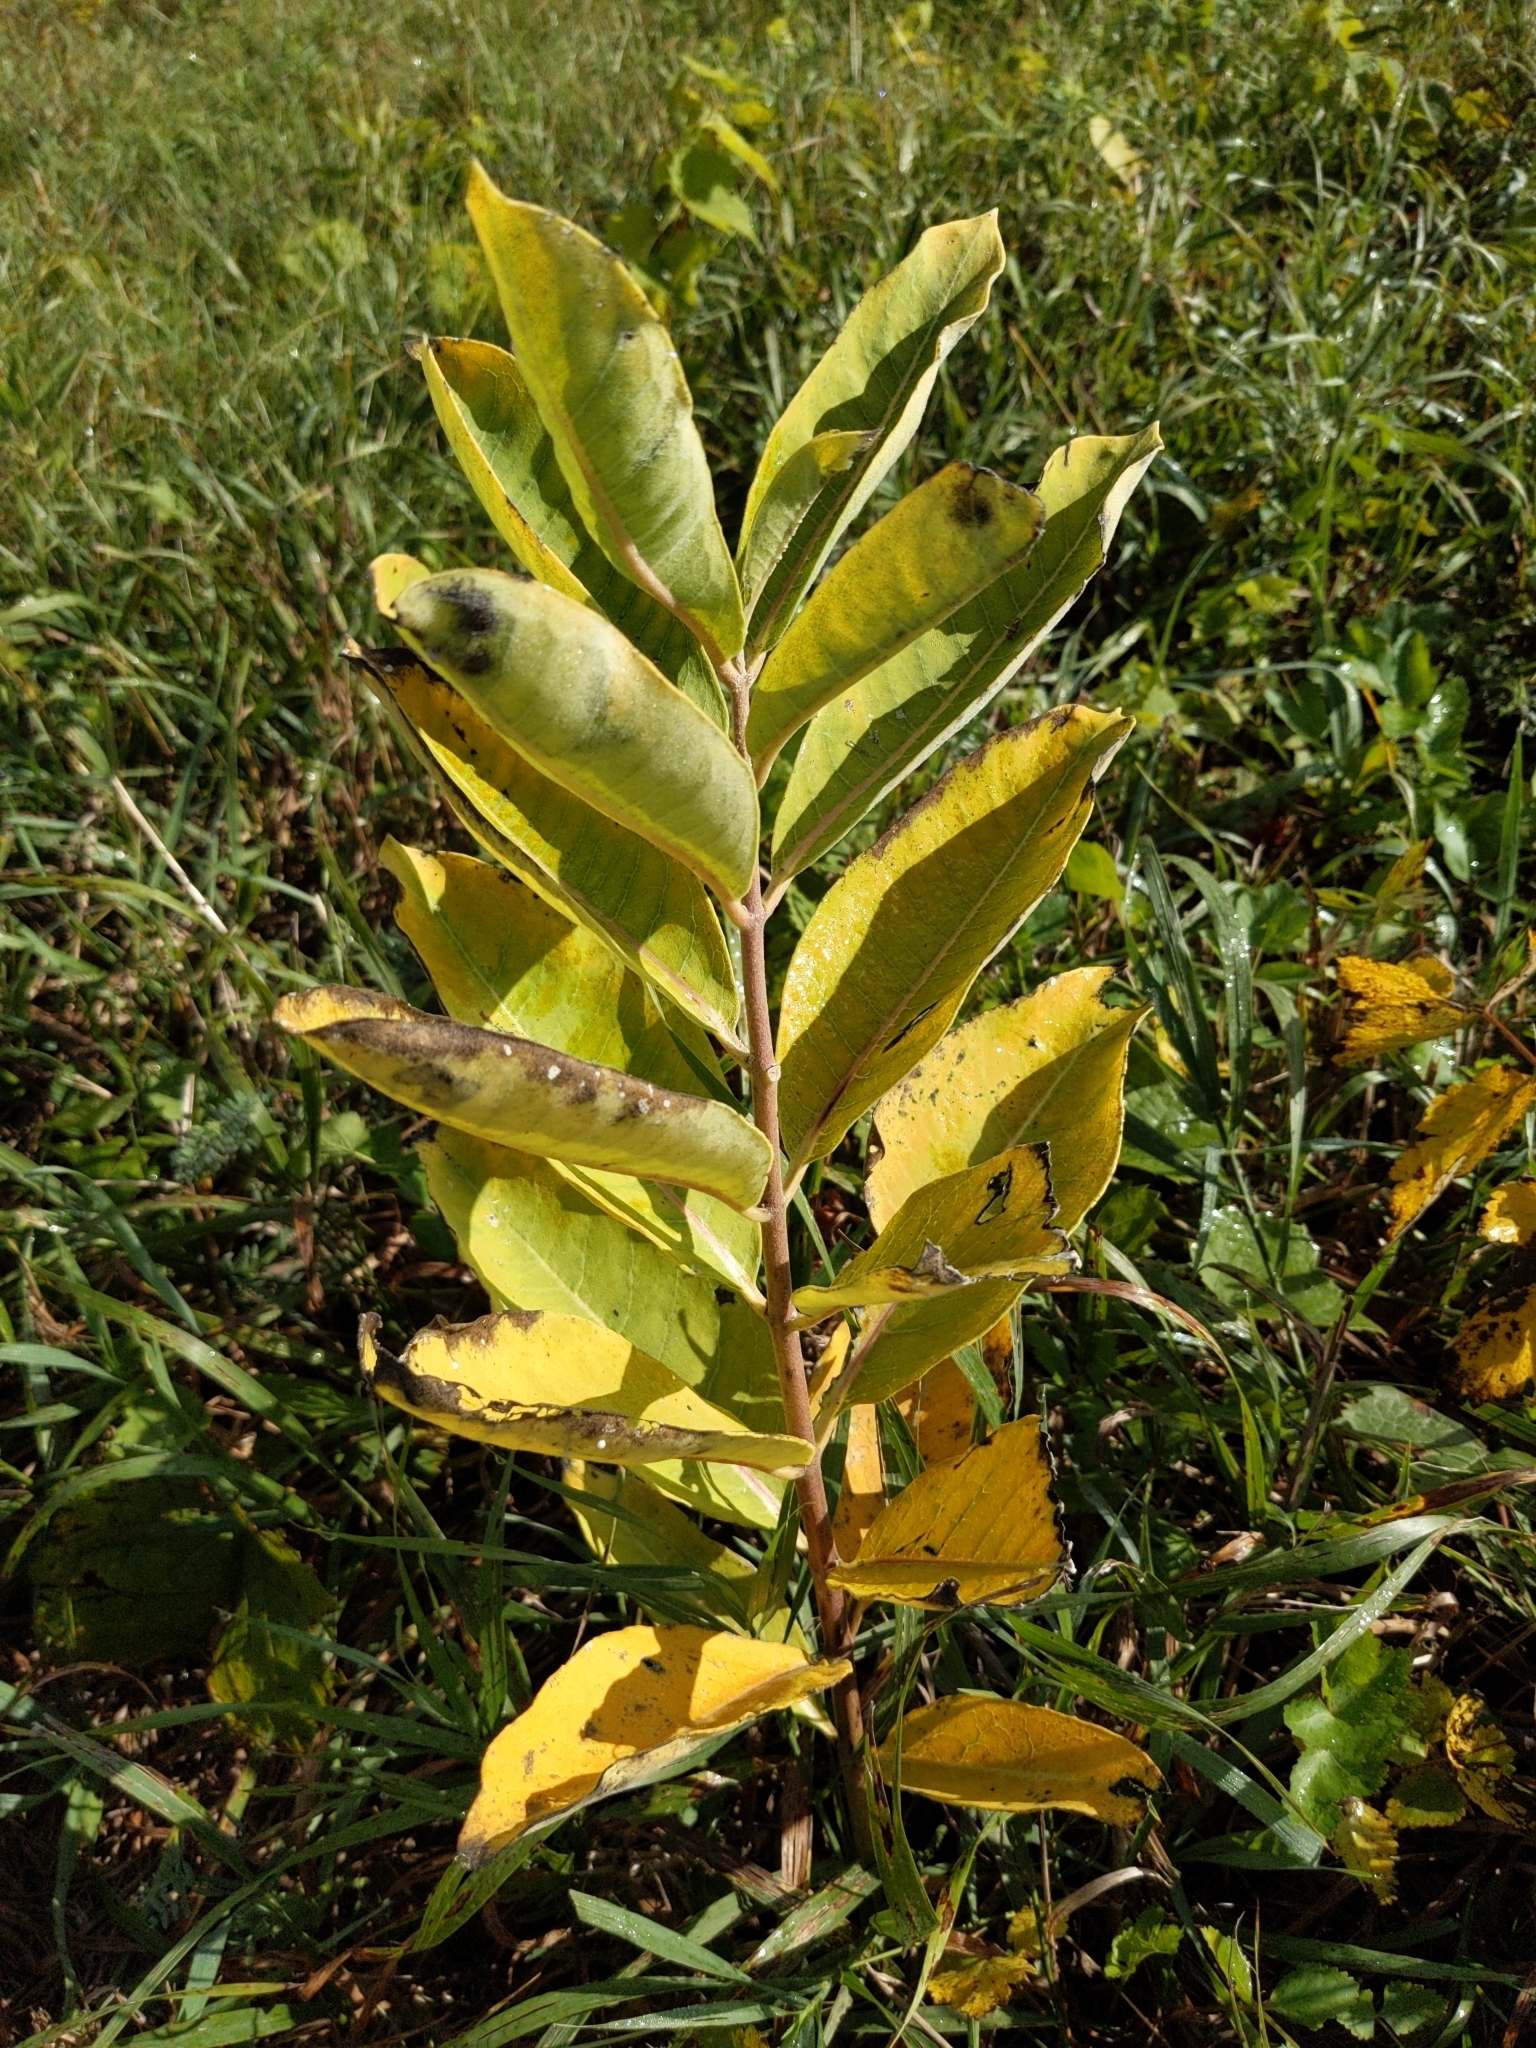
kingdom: Plantae
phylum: Tracheophyta
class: Magnoliopsida
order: Gentianales
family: Apocynaceae
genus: Asclepias
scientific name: Asclepias syriaca
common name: Common milkweed
